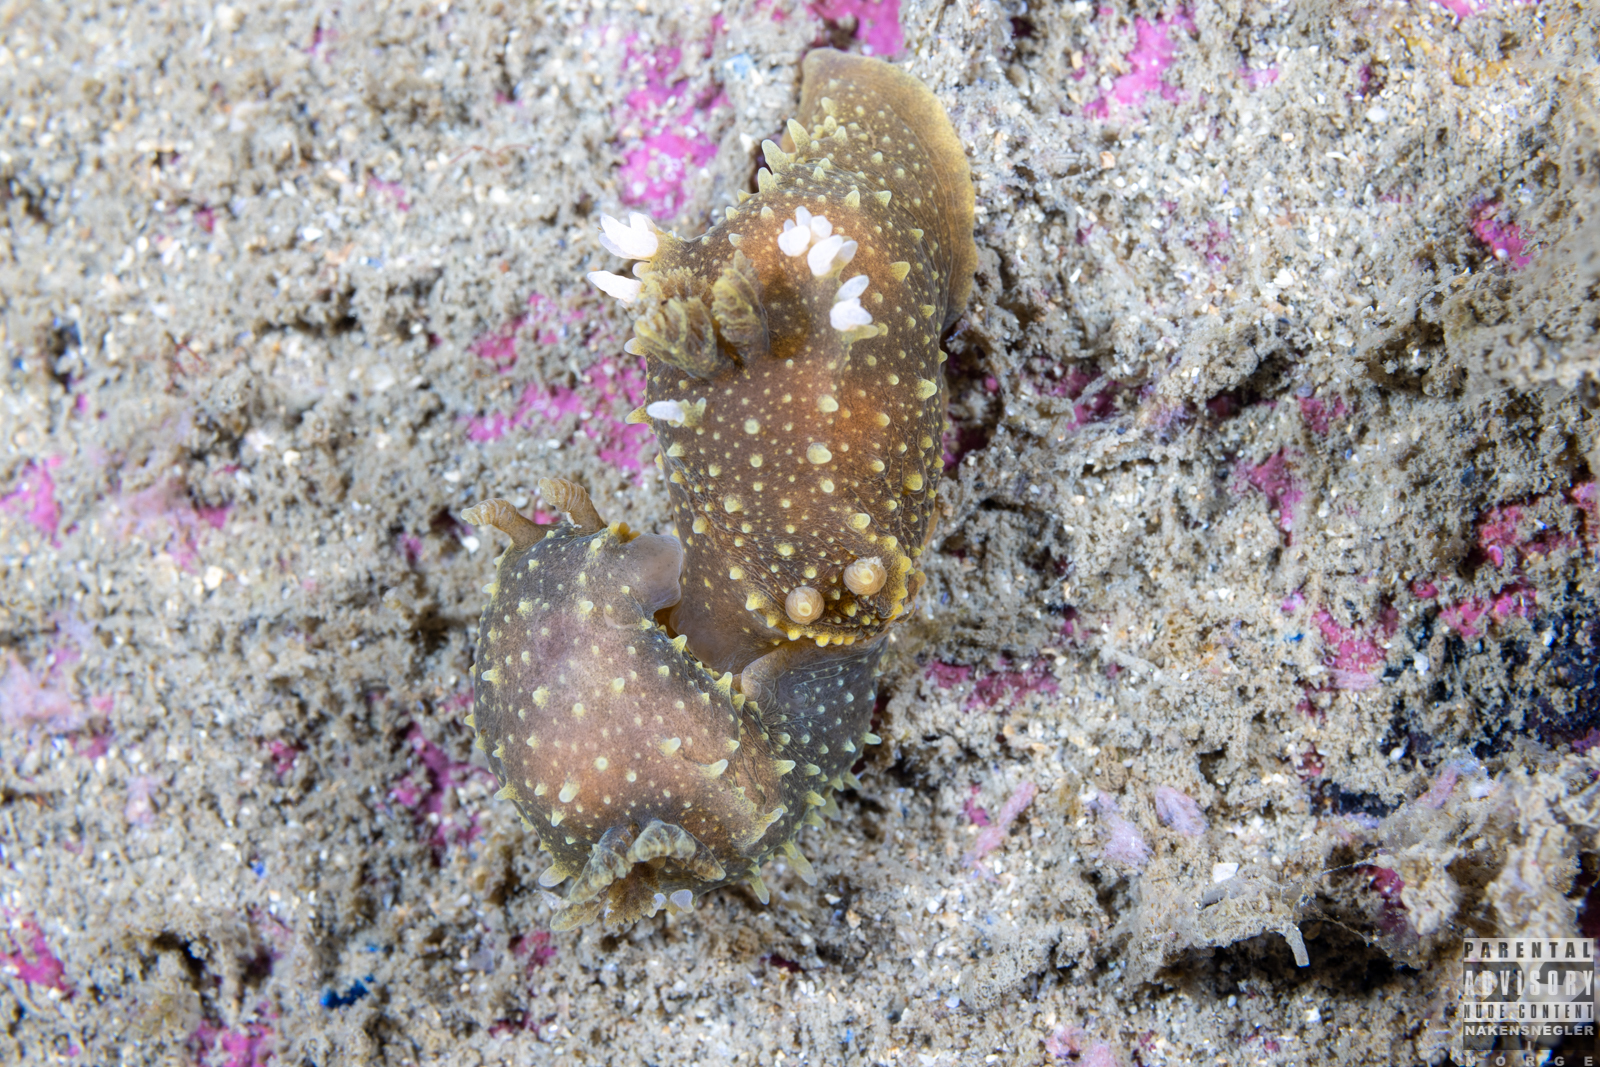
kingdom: Animalia
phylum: Mollusca
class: Gastropoda
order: Nudibranchia
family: Polyceridae
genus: Palio
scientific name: Palio dubia
